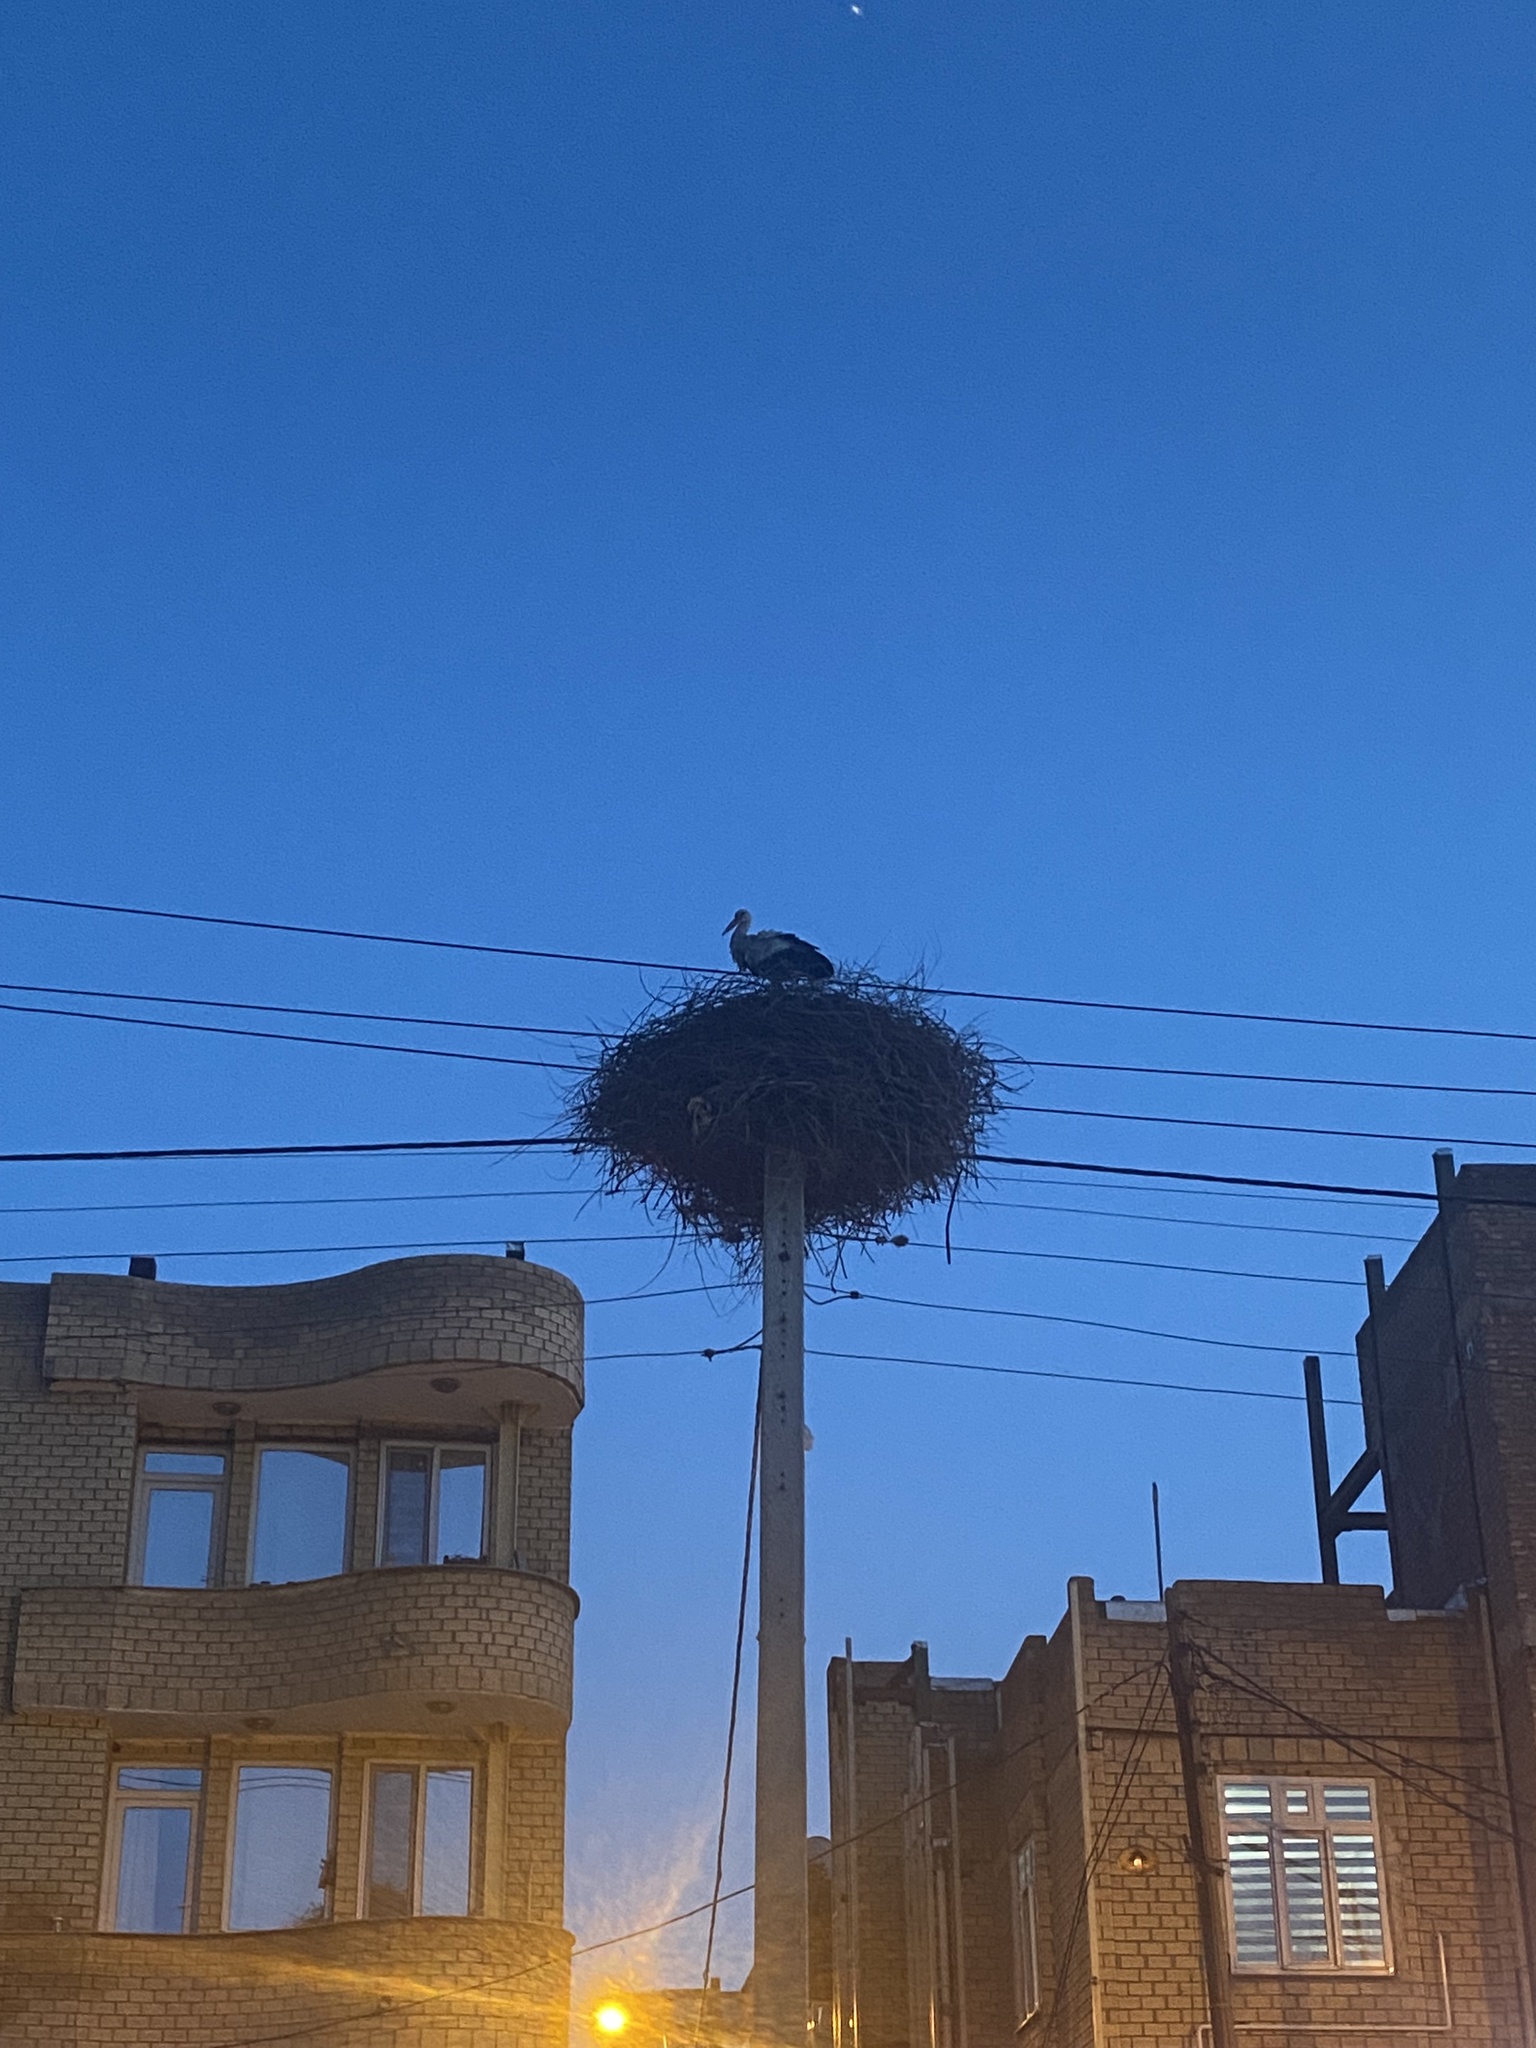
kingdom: Animalia
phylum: Chordata
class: Aves
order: Ciconiiformes
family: Ciconiidae
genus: Ciconia
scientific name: Ciconia ciconia
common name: White stork
